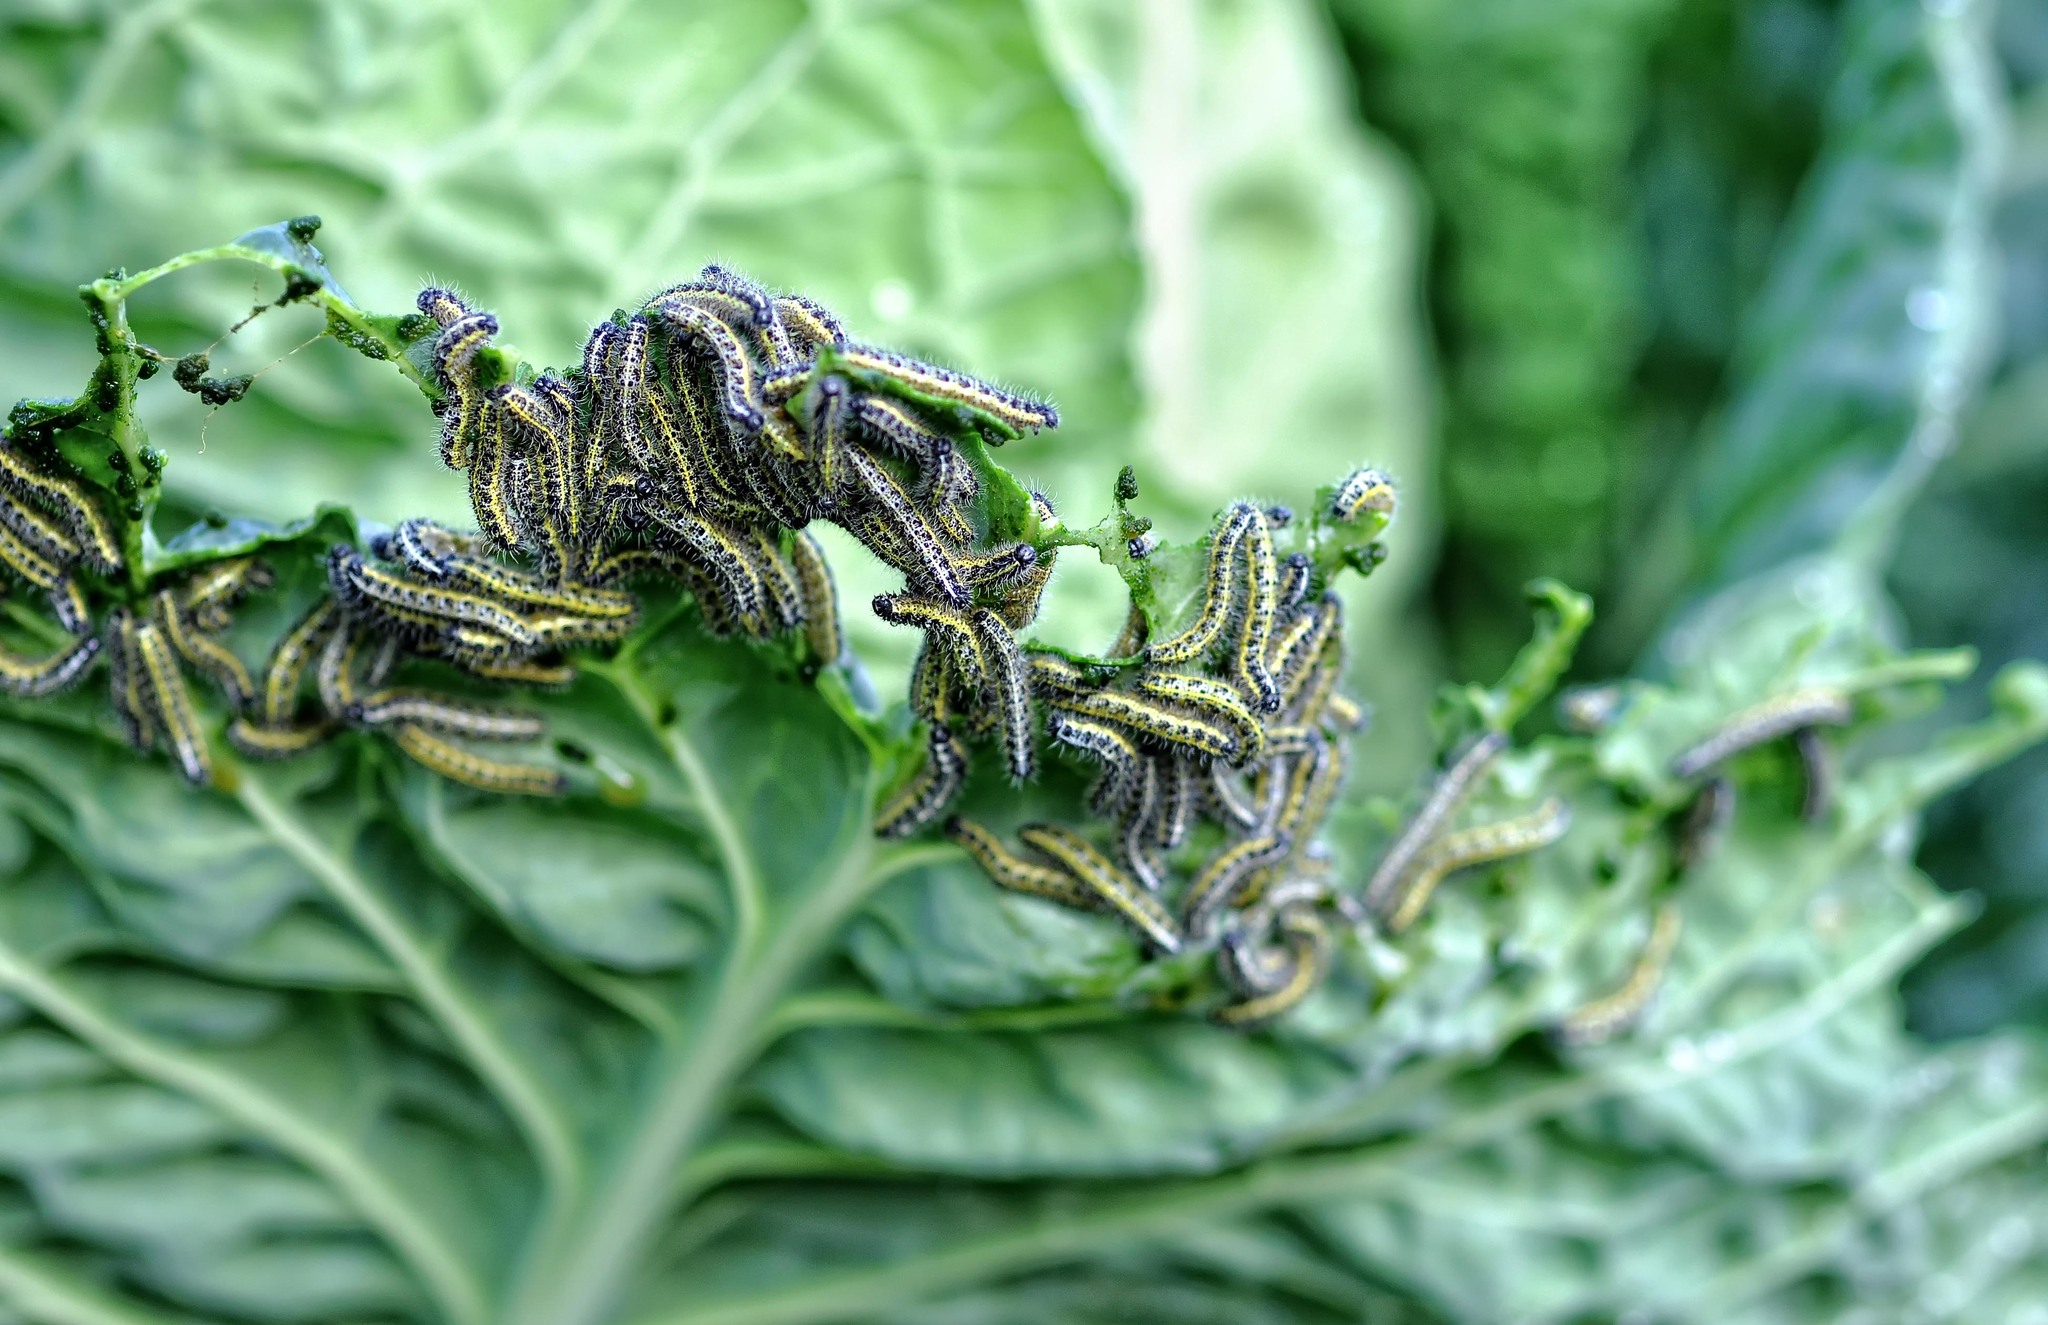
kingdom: Animalia
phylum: Arthropoda
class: Insecta
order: Lepidoptera
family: Pieridae
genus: Pieris
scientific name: Pieris brassicae
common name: Large white
